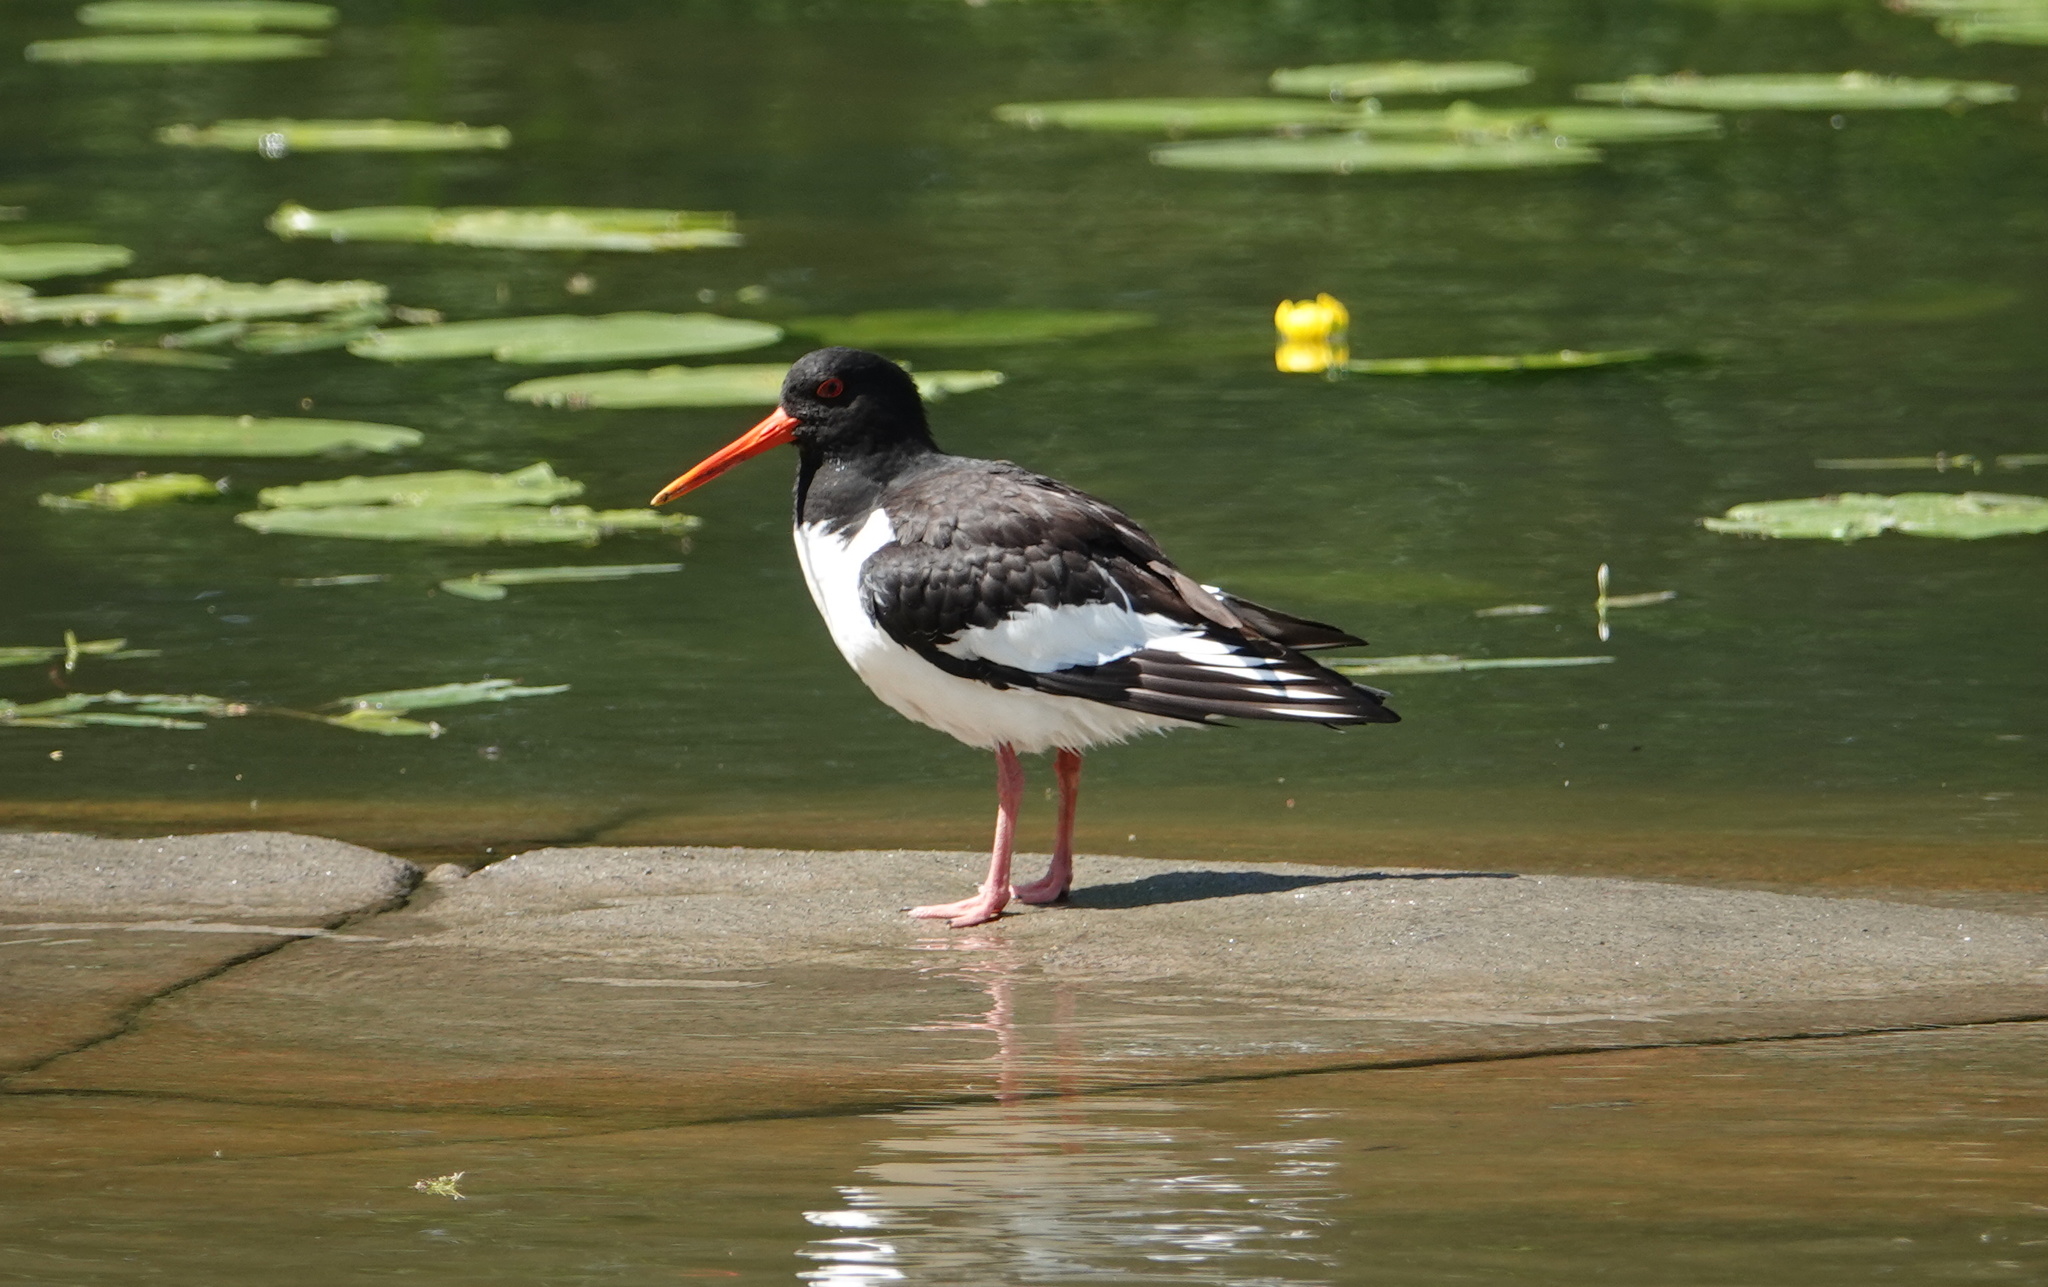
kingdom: Animalia
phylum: Chordata
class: Aves
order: Charadriiformes
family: Haematopodidae
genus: Haematopus
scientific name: Haematopus ostralegus
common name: Eurasian oystercatcher
